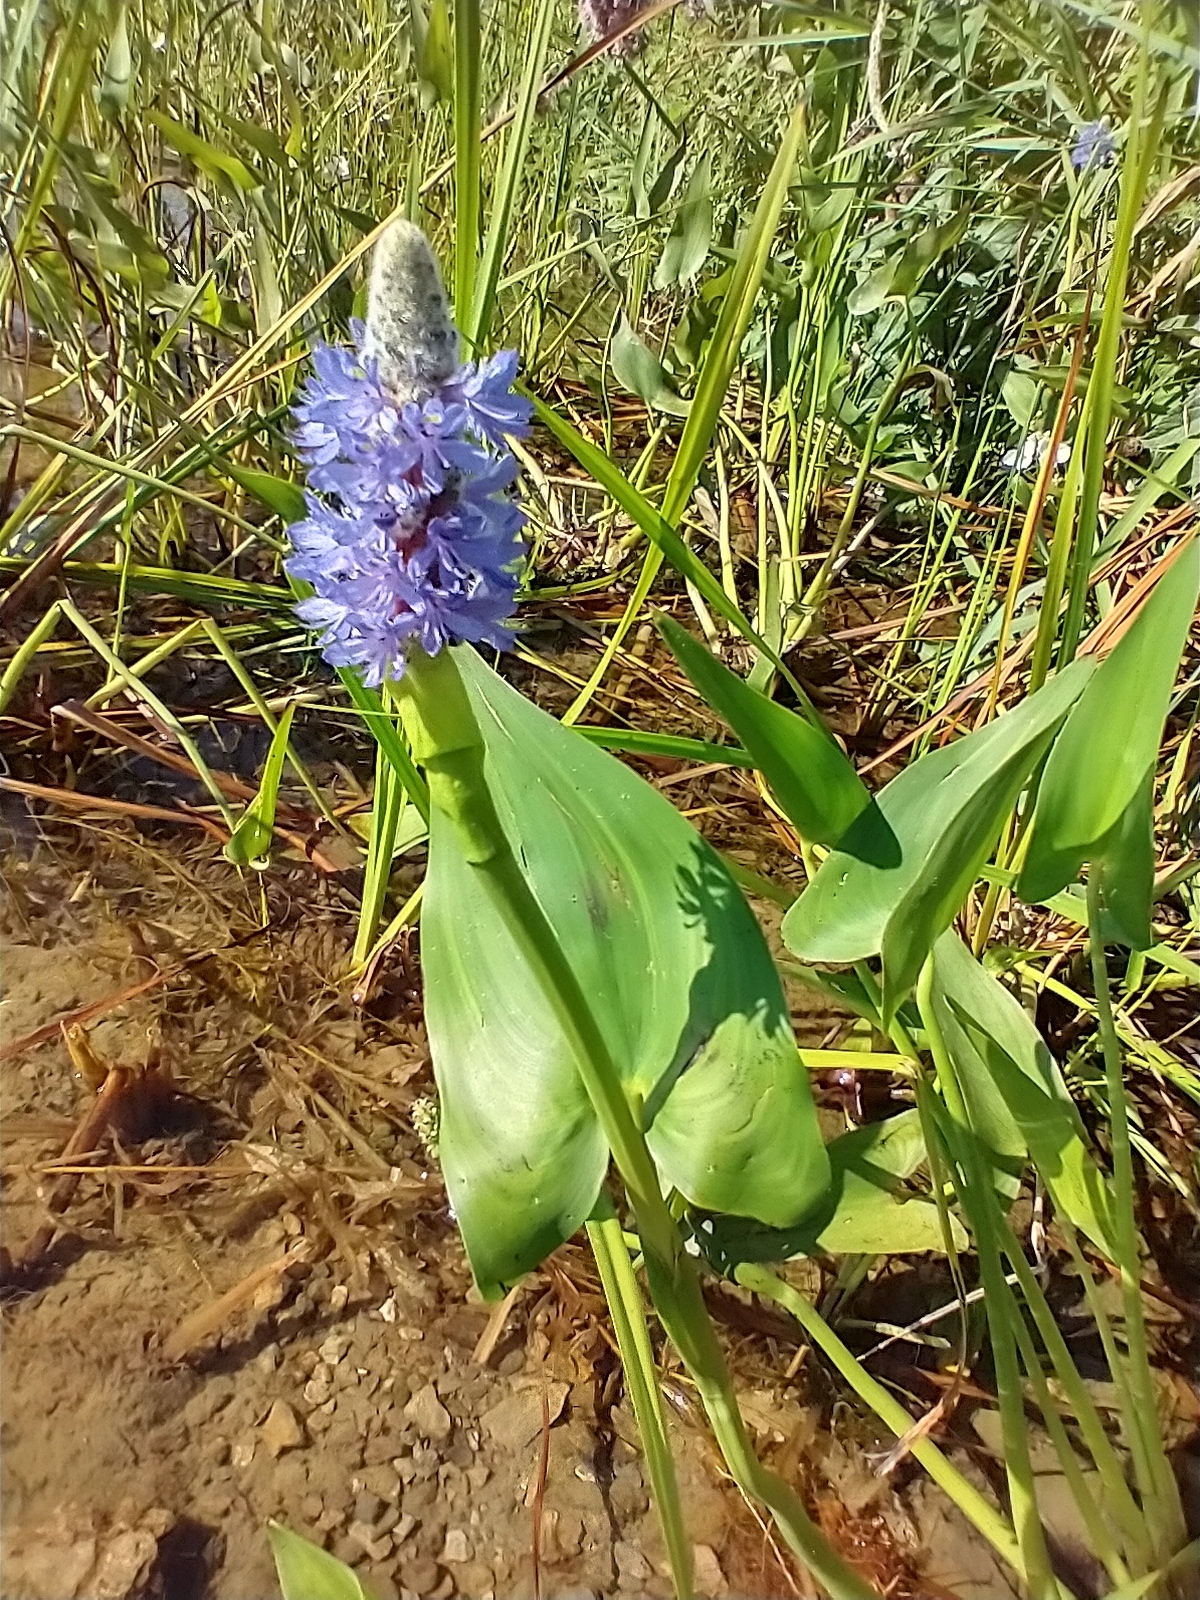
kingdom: Plantae
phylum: Tracheophyta
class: Liliopsida
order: Commelinales
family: Pontederiaceae
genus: Pontederia
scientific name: Pontederia cordata
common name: Pickerelweed
